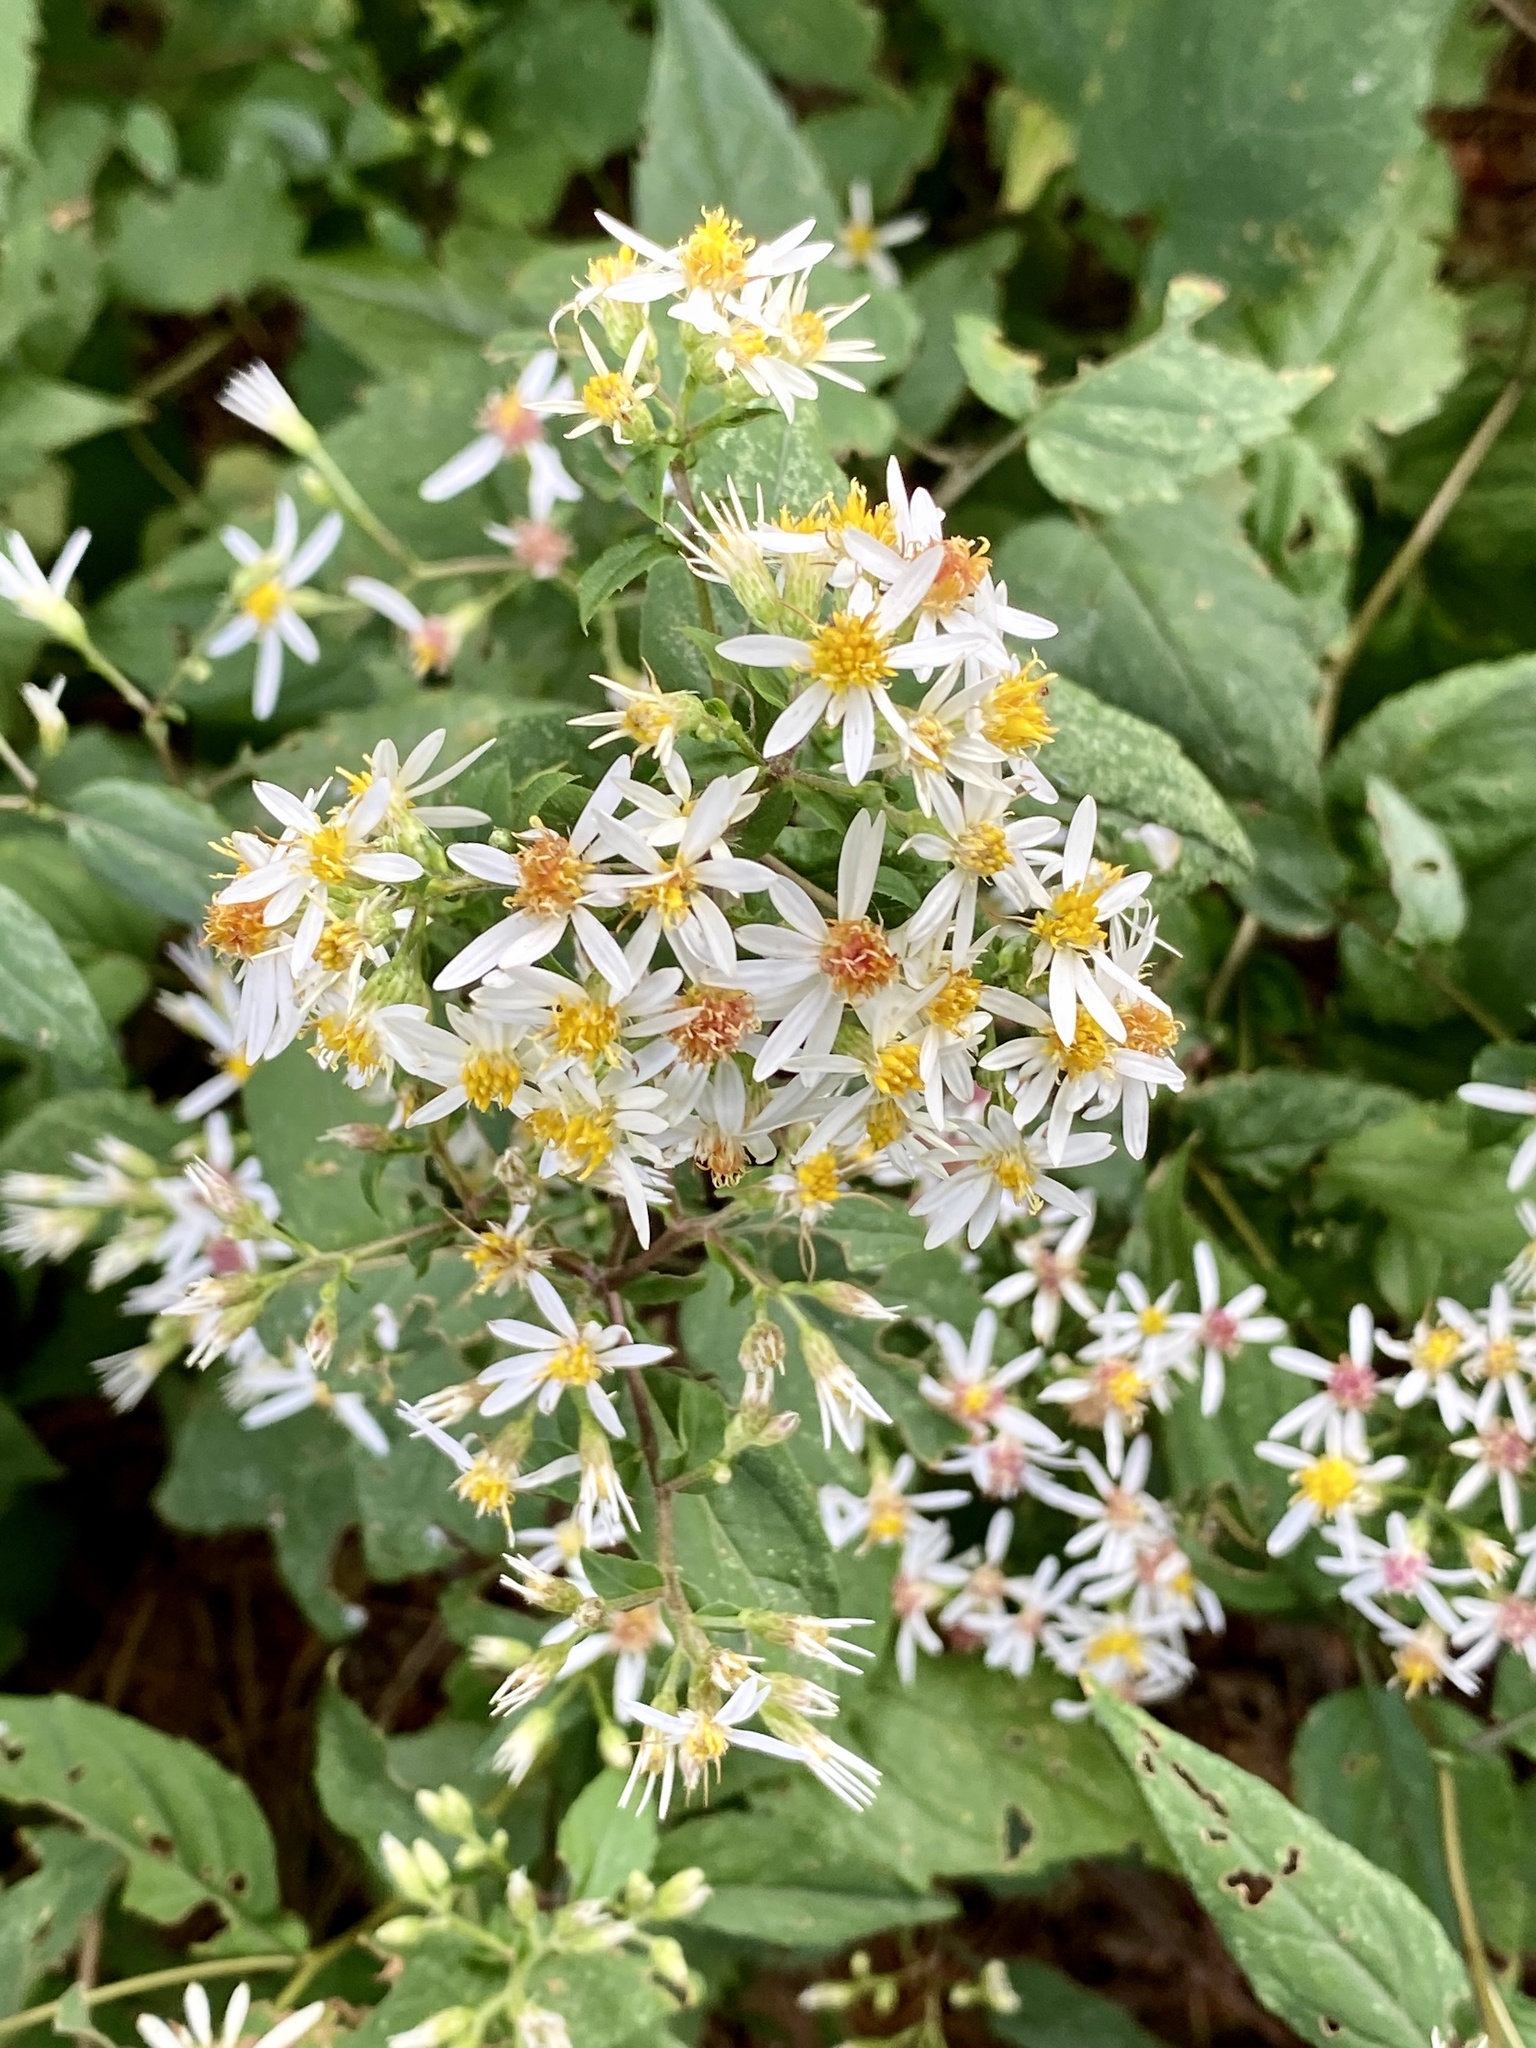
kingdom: Plantae
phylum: Tracheophyta
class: Magnoliopsida
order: Asterales
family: Asteraceae
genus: Eurybia
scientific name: Eurybia divaricata
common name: White wood aster
